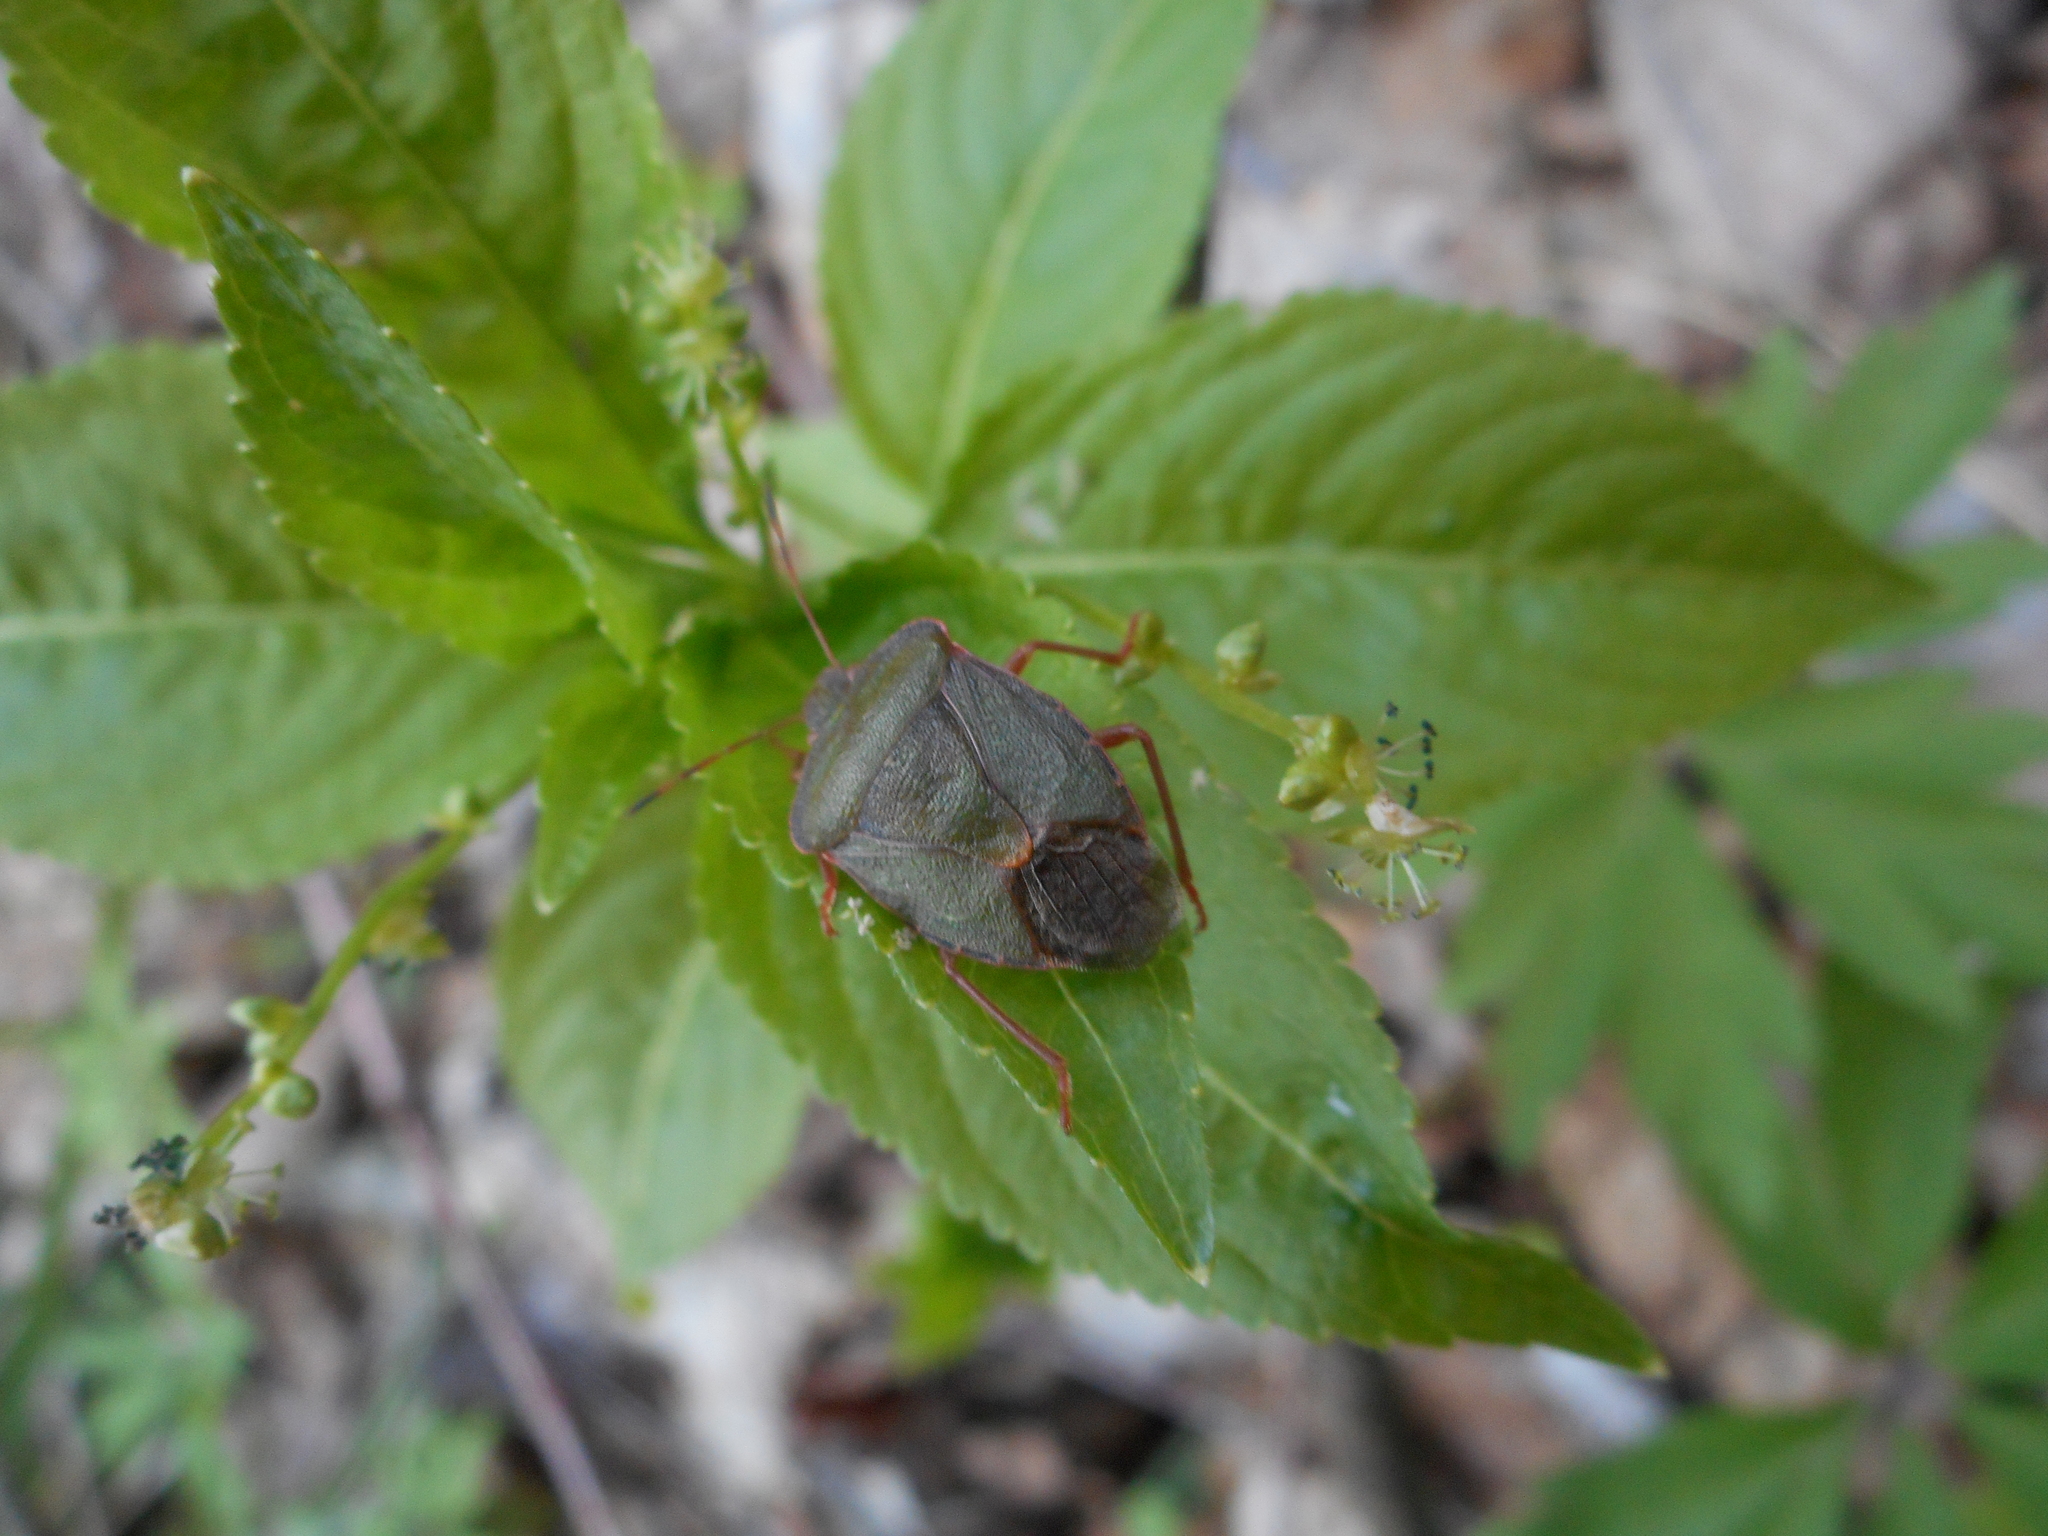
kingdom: Animalia
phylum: Arthropoda
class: Insecta
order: Hemiptera
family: Pentatomidae
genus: Palomena
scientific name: Palomena prasina
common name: Green shieldbug
